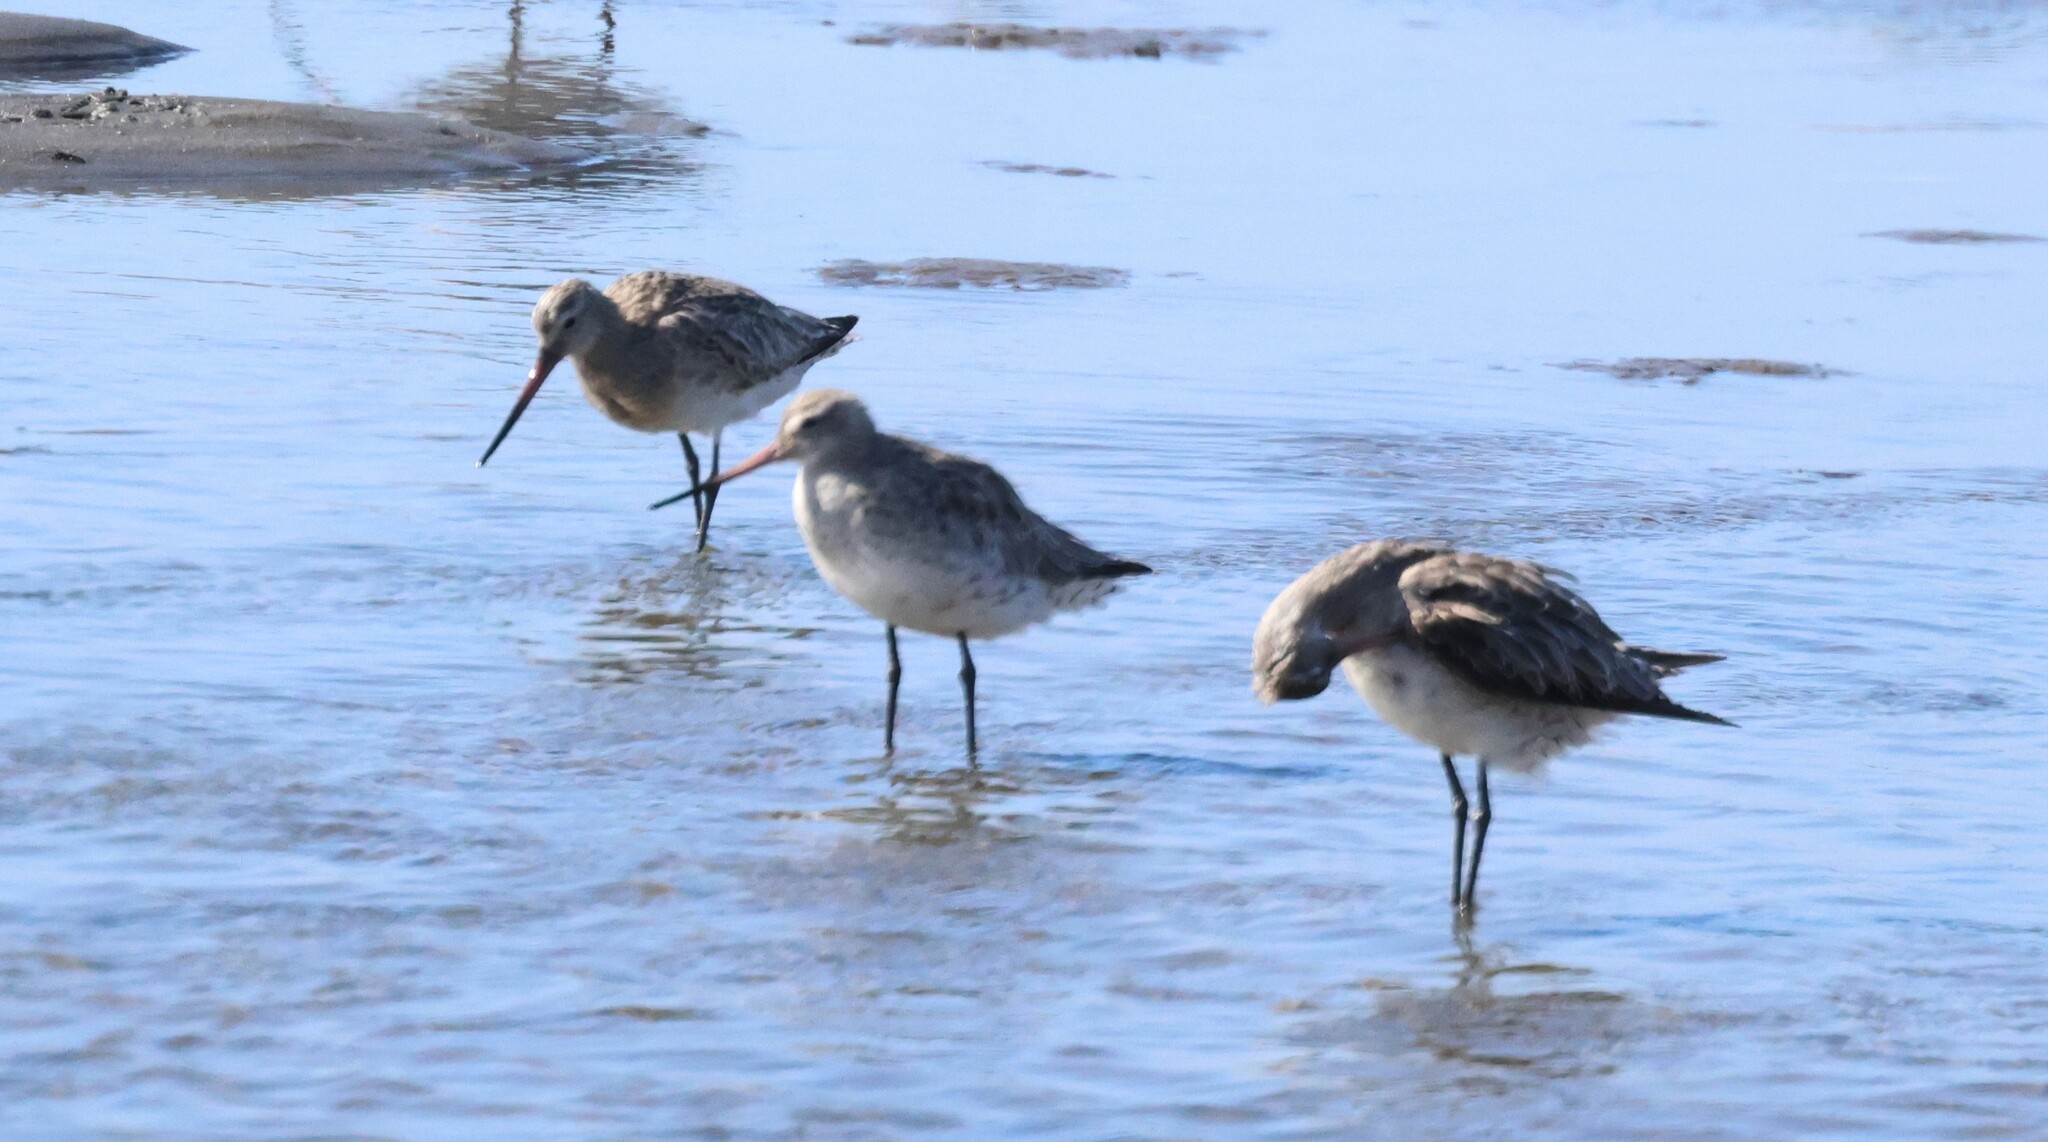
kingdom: Animalia
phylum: Chordata
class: Aves
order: Charadriiformes
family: Scolopacidae
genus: Limosa
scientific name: Limosa lapponica
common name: Bar-tailed godwit
